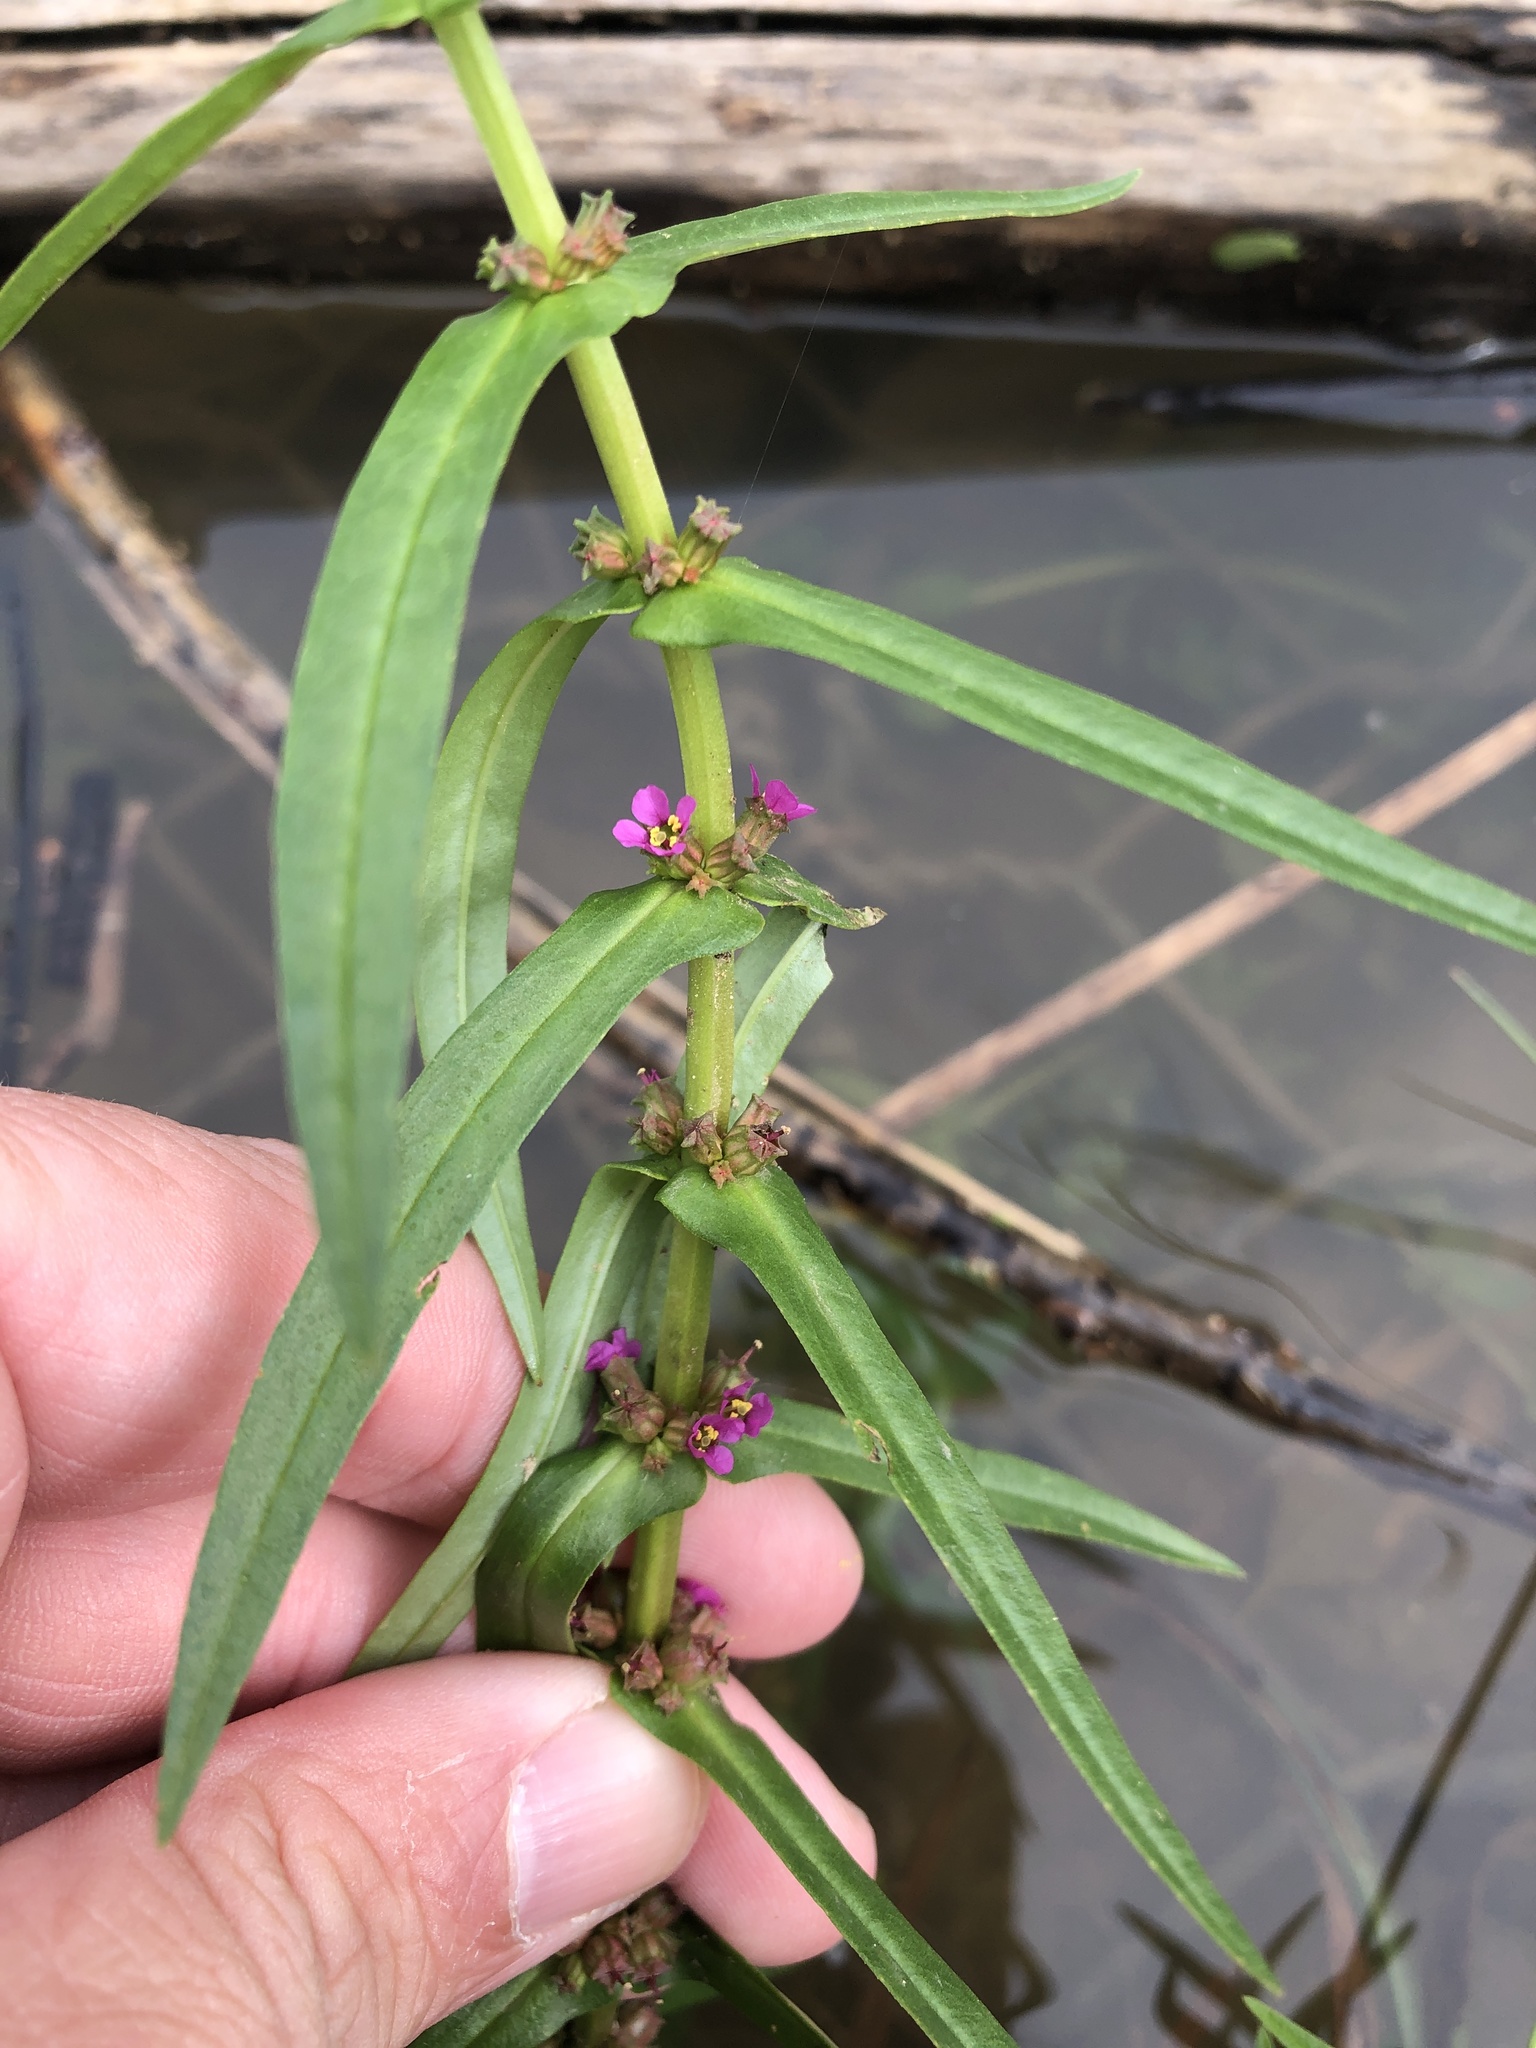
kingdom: Plantae
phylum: Tracheophyta
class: Magnoliopsida
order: Myrtales
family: Lythraceae
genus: Ammannia
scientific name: Ammannia coccinea
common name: Valley redstem
